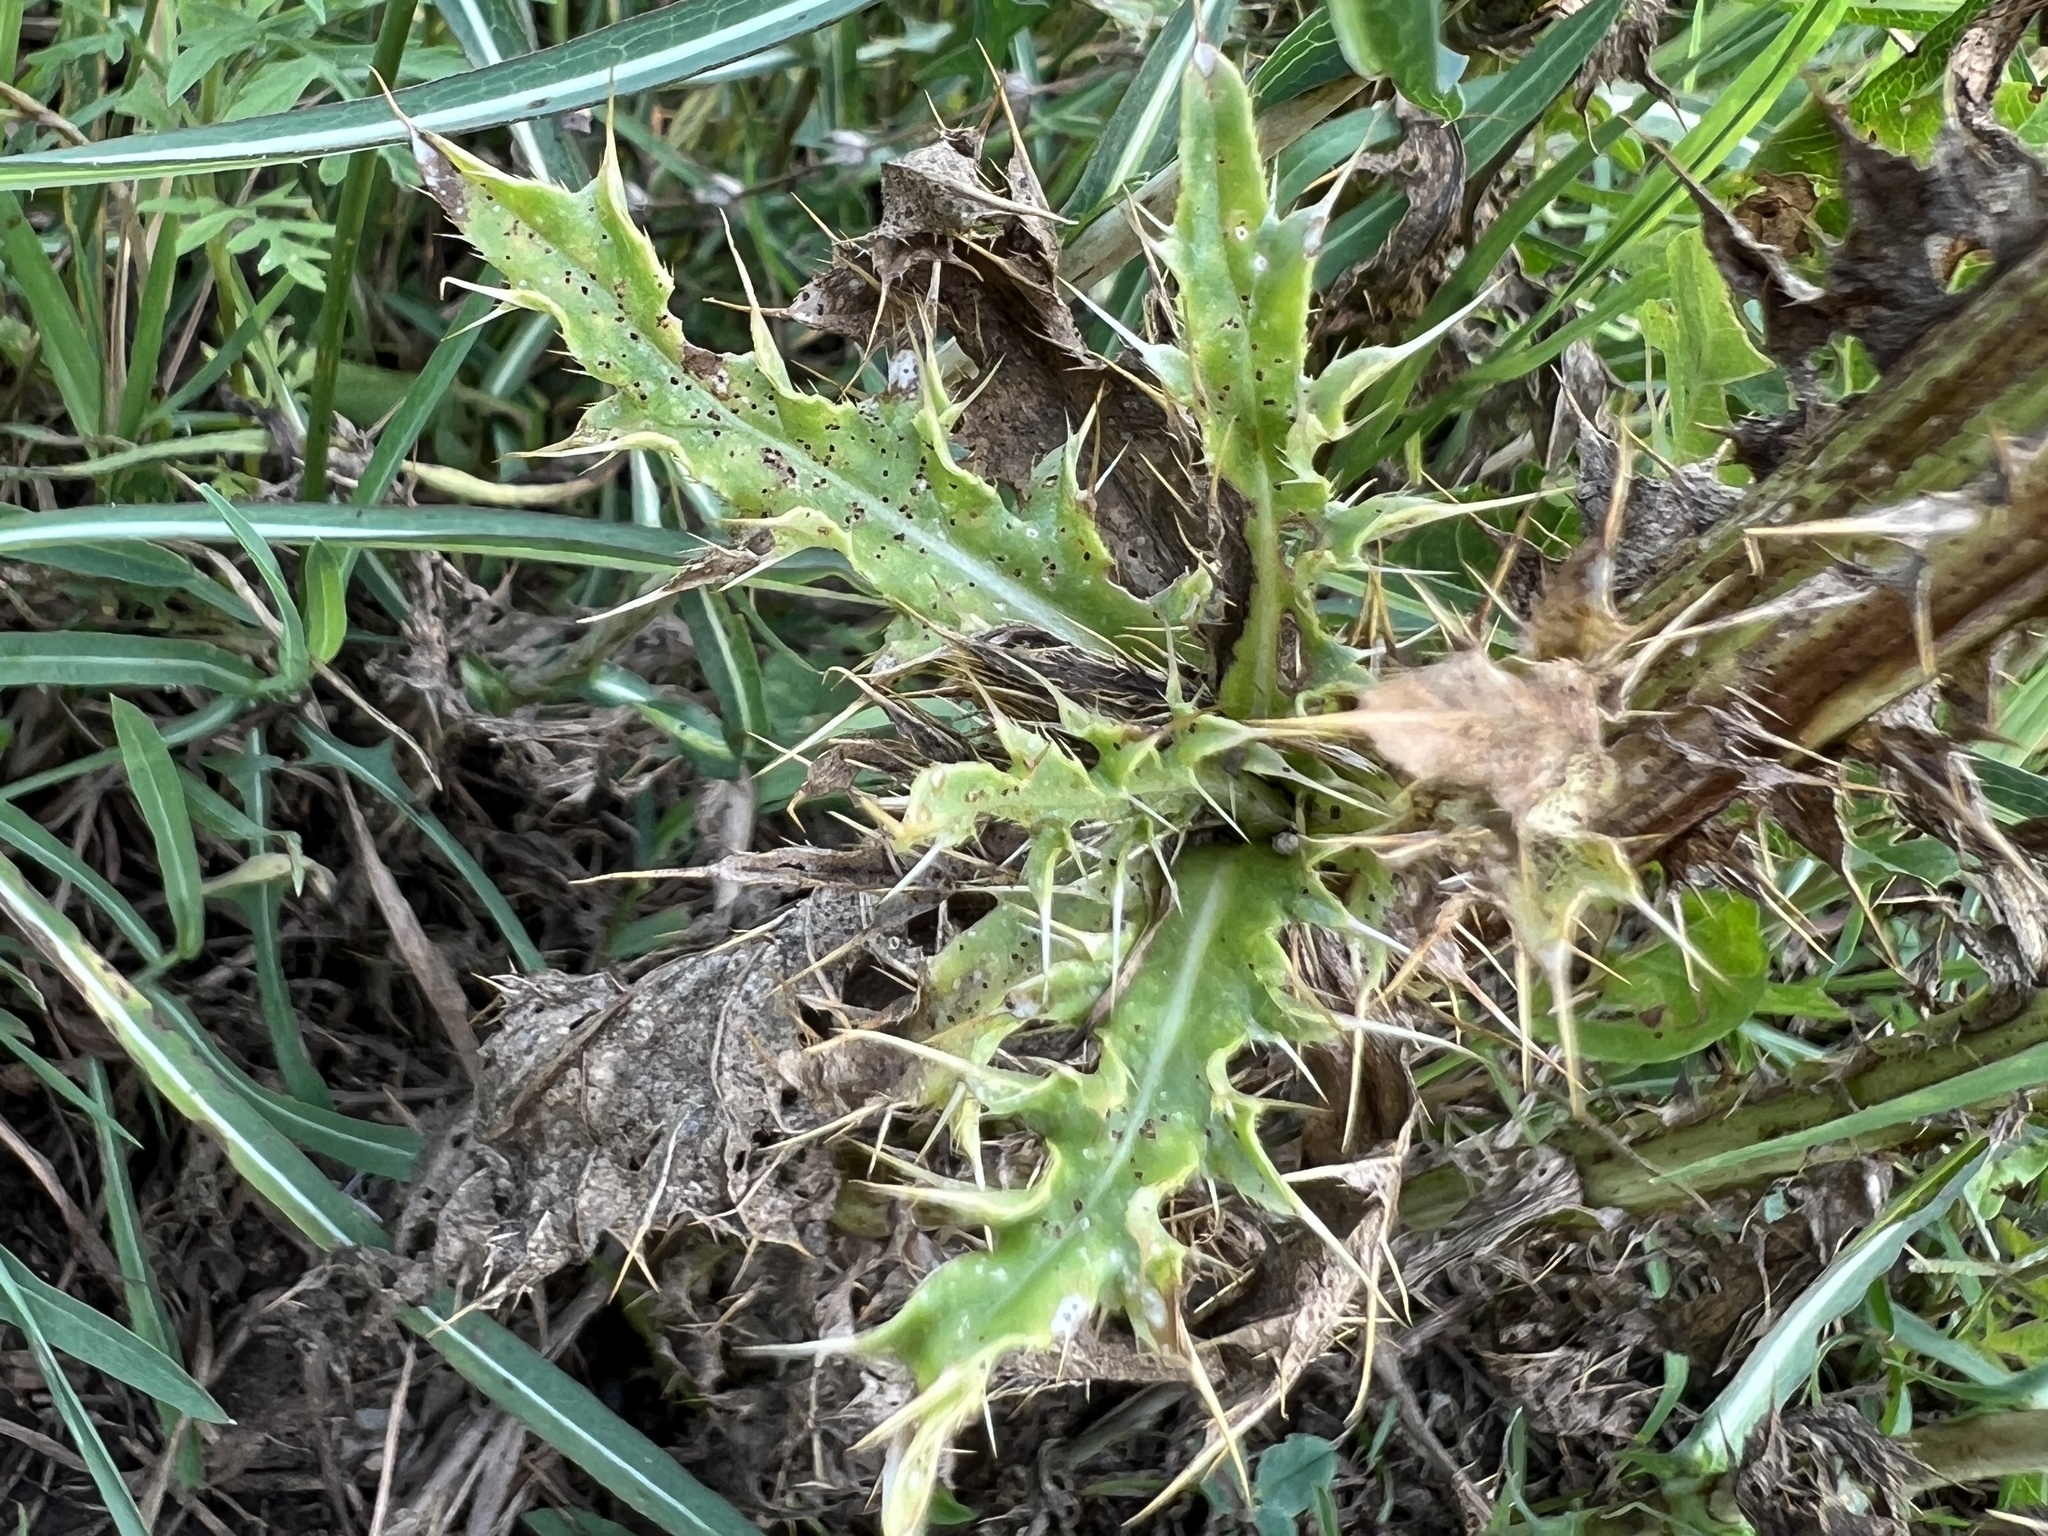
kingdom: Plantae
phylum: Tracheophyta
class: Magnoliopsida
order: Asterales
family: Asteraceae
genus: Carduus
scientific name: Carduus nutans
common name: Musk thistle
